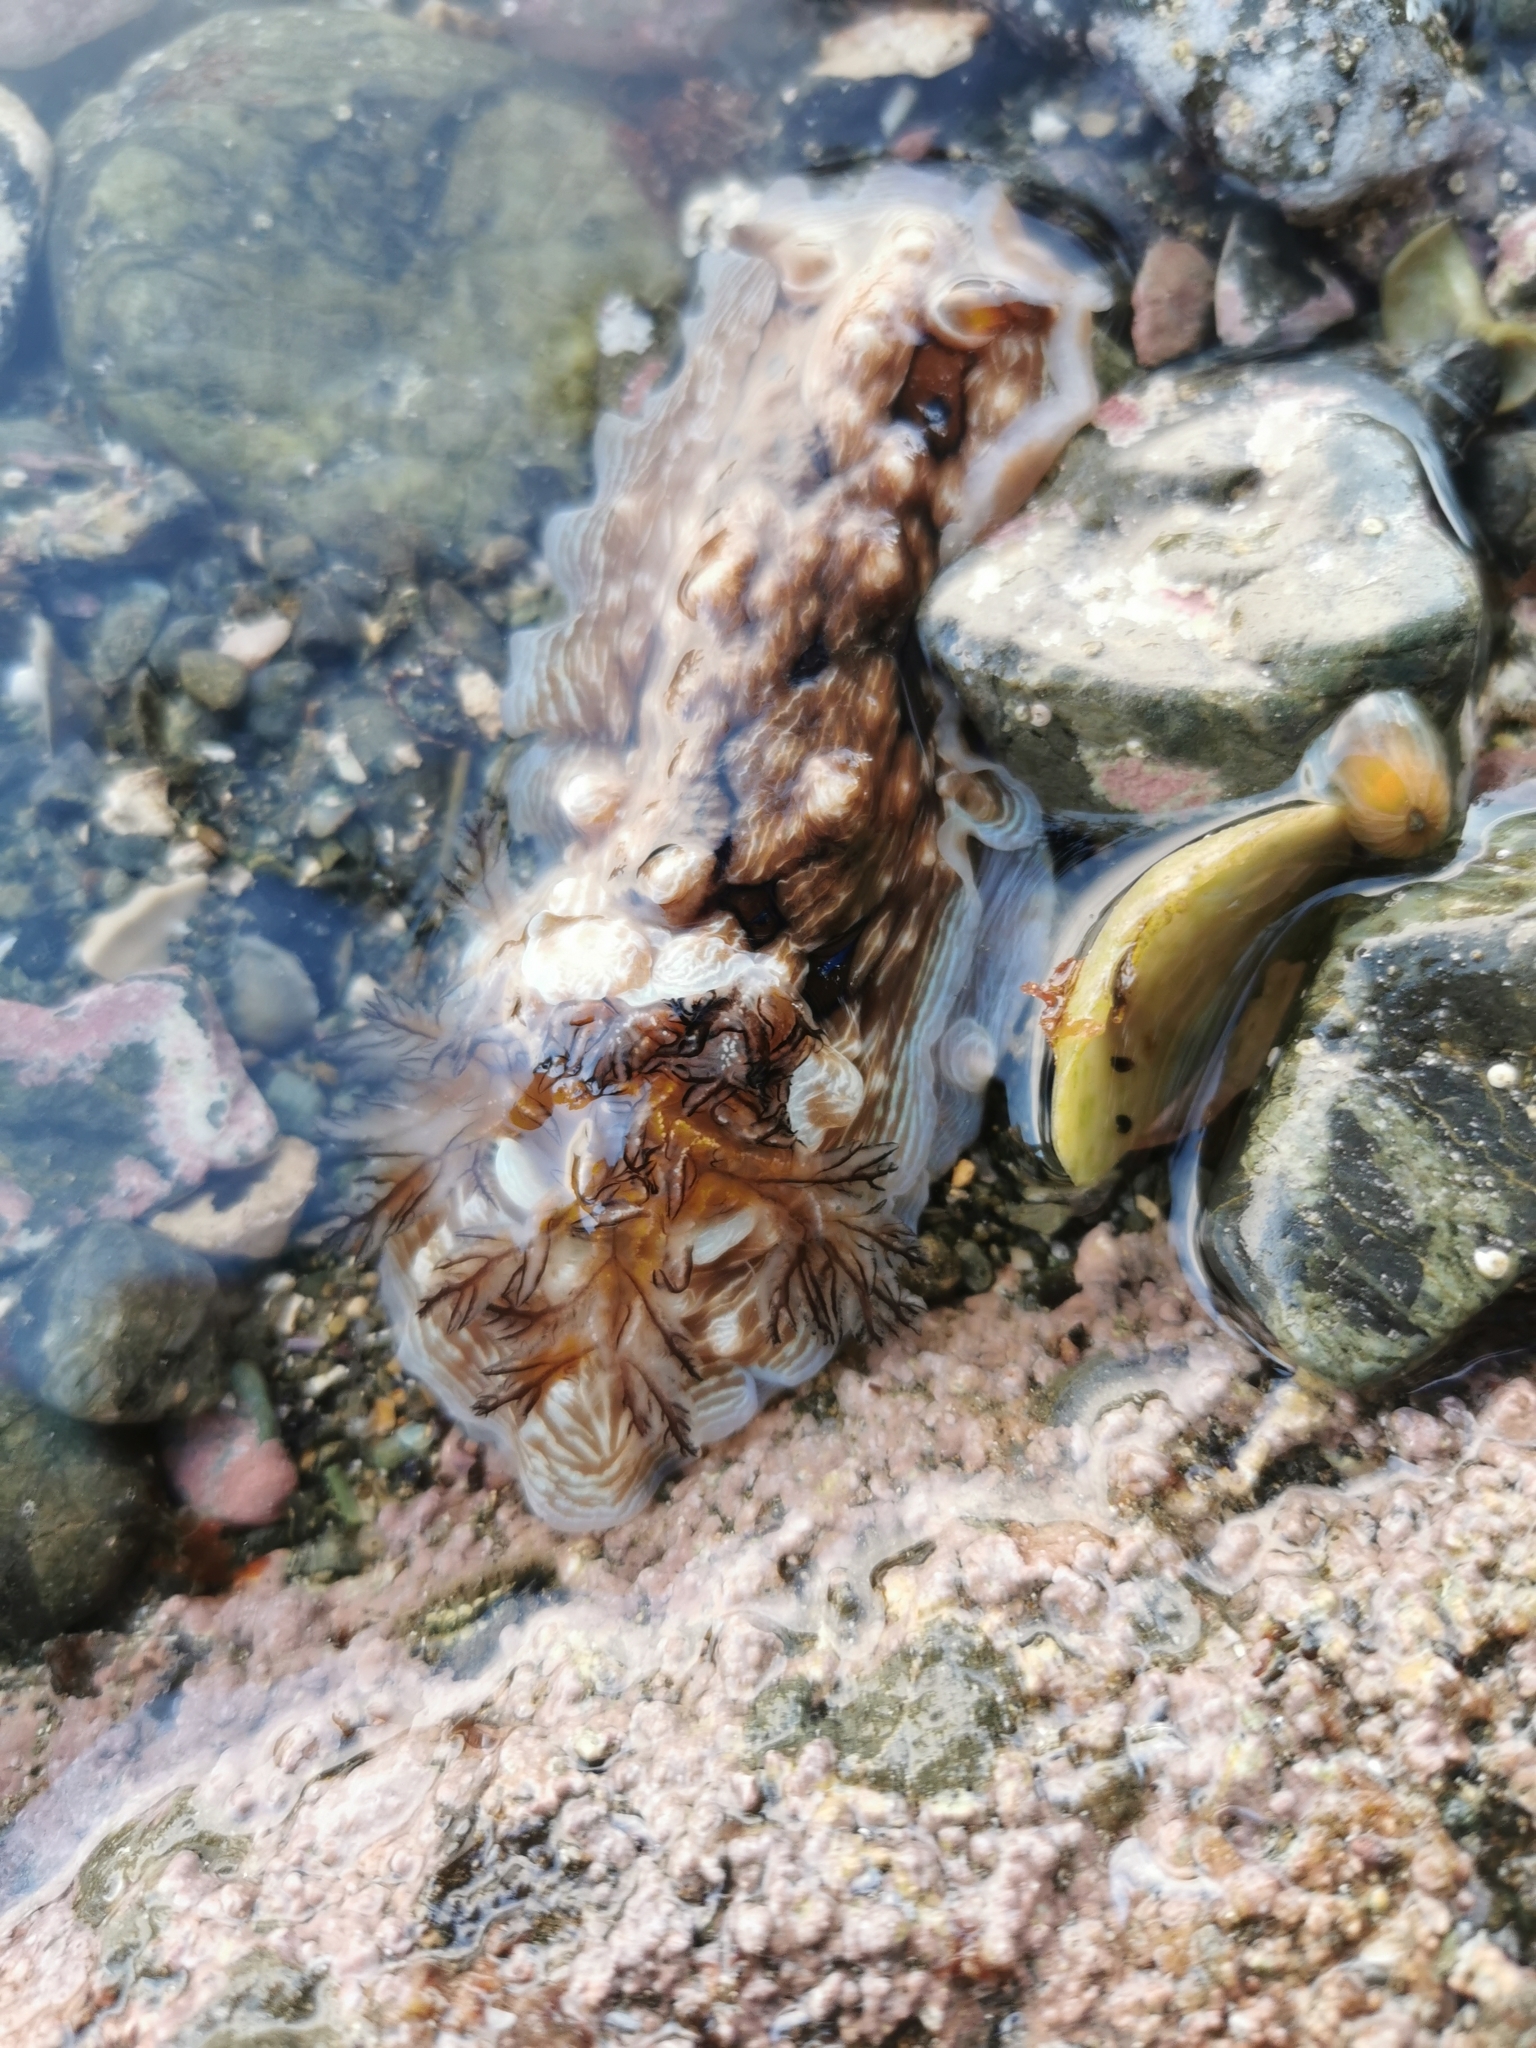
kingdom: Animalia
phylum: Mollusca
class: Gastropoda
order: Nudibranchia
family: Dendrodorididae
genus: Dendrodoris
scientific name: Dendrodoris krusensternii
